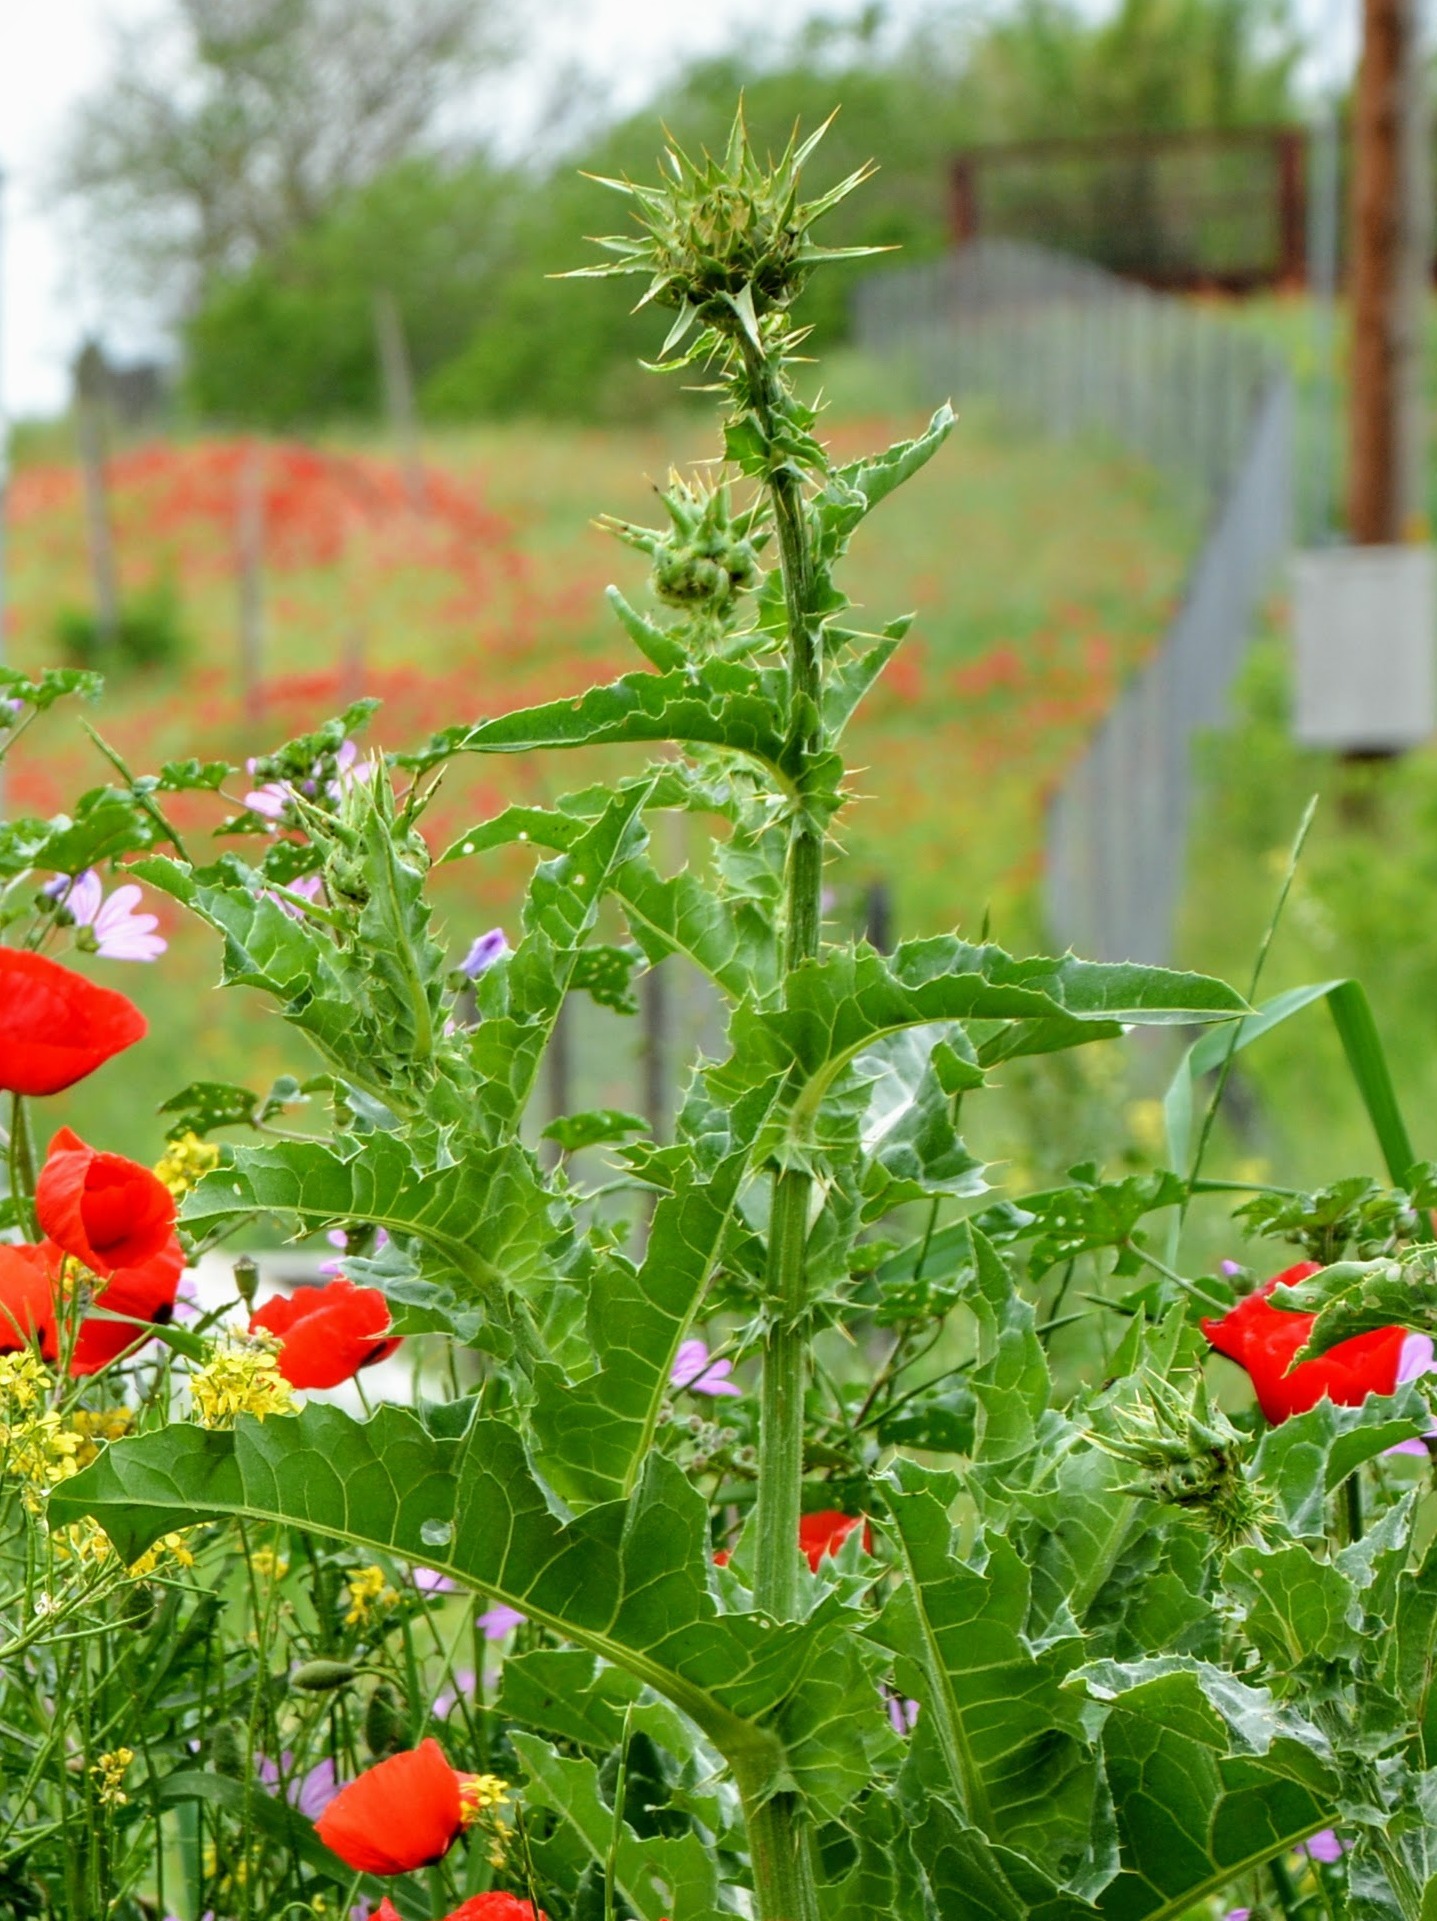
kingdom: Plantae
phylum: Tracheophyta
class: Magnoliopsida
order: Asterales
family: Asteraceae
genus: Silybum
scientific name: Silybum marianum
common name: Milk thistle
